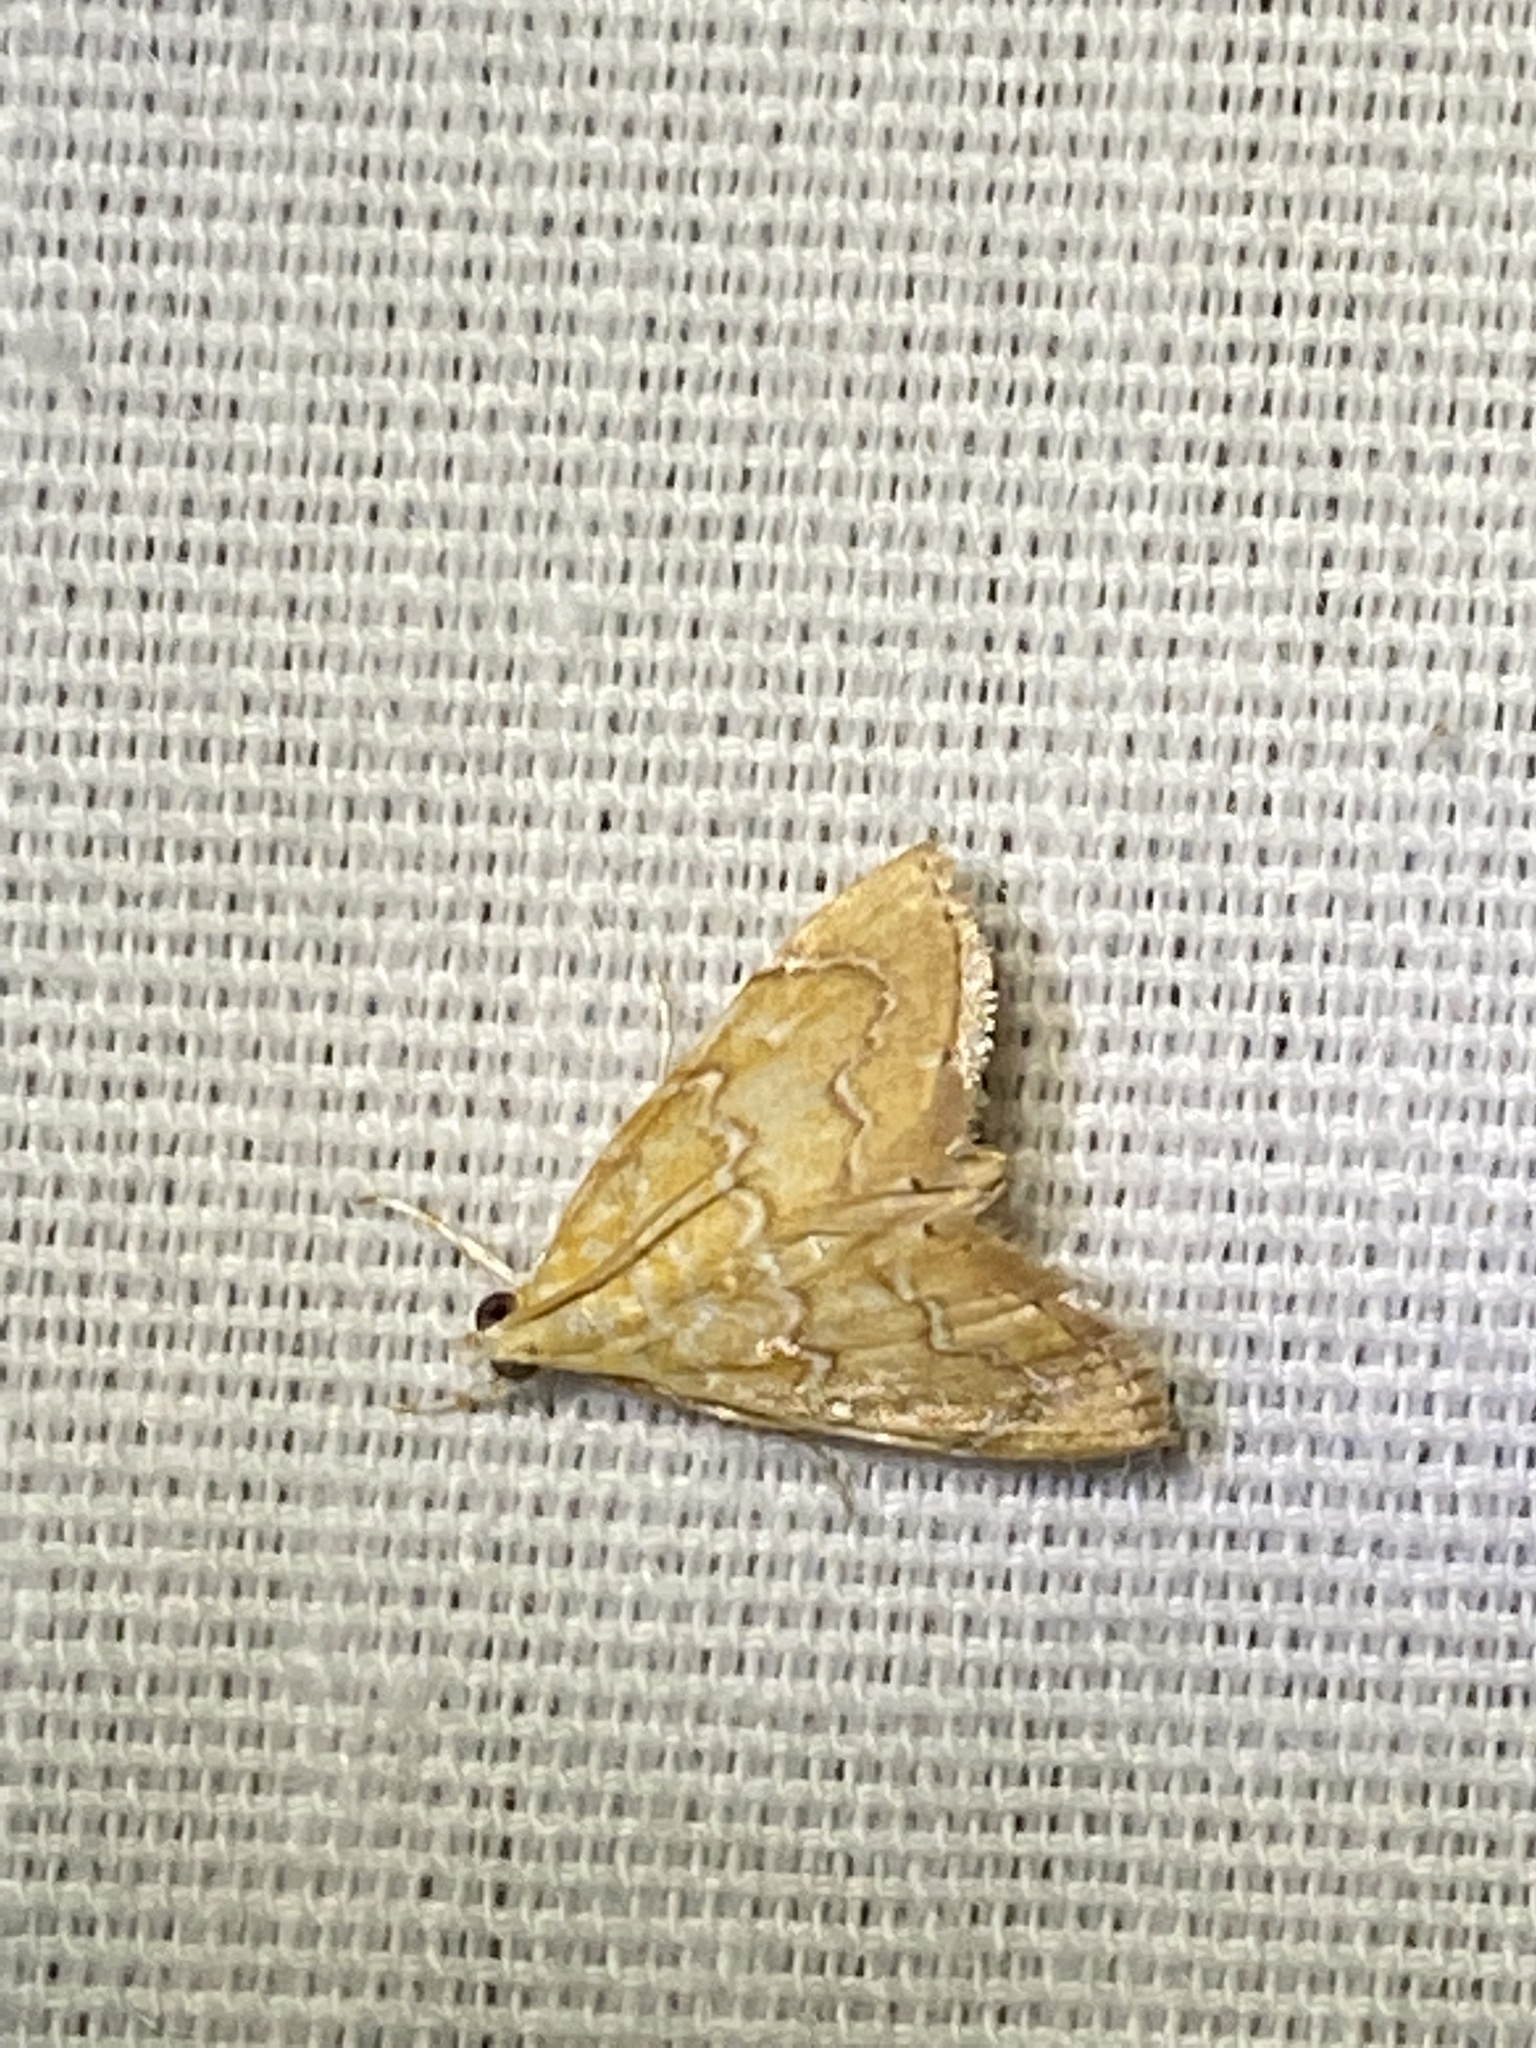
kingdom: Animalia
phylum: Arthropoda
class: Insecta
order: Lepidoptera
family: Crambidae
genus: Glaphyria
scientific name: Glaphyria sesquistrialis
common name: White-roped glaphyria
